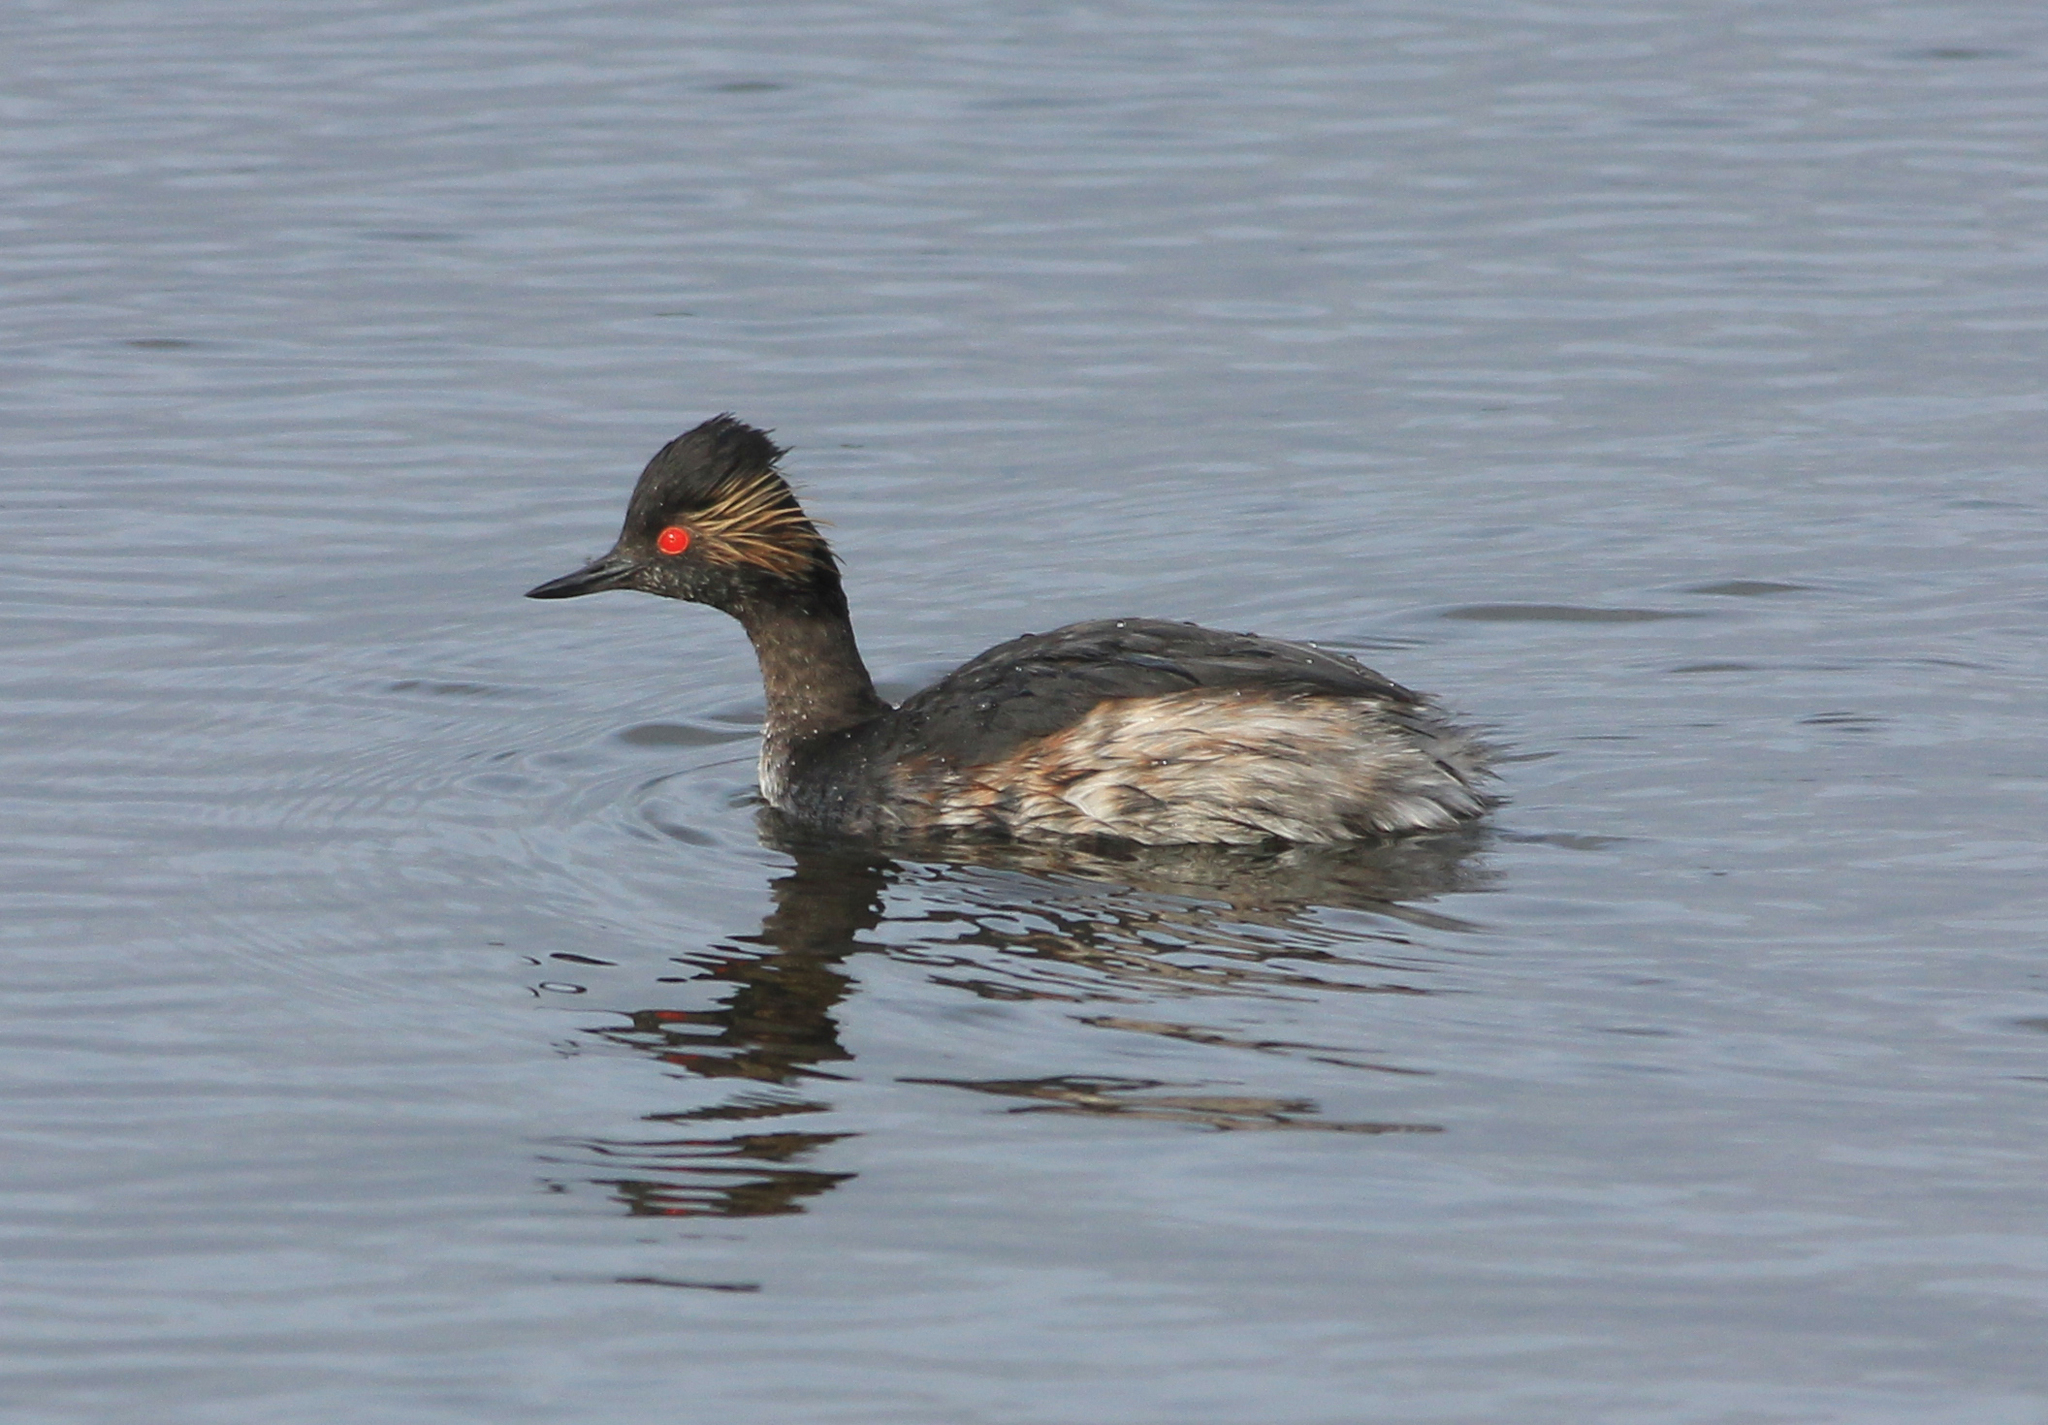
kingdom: Animalia
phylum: Chordata
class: Aves
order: Podicipediformes
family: Podicipedidae
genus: Podiceps
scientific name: Podiceps nigricollis
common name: Black-necked grebe
